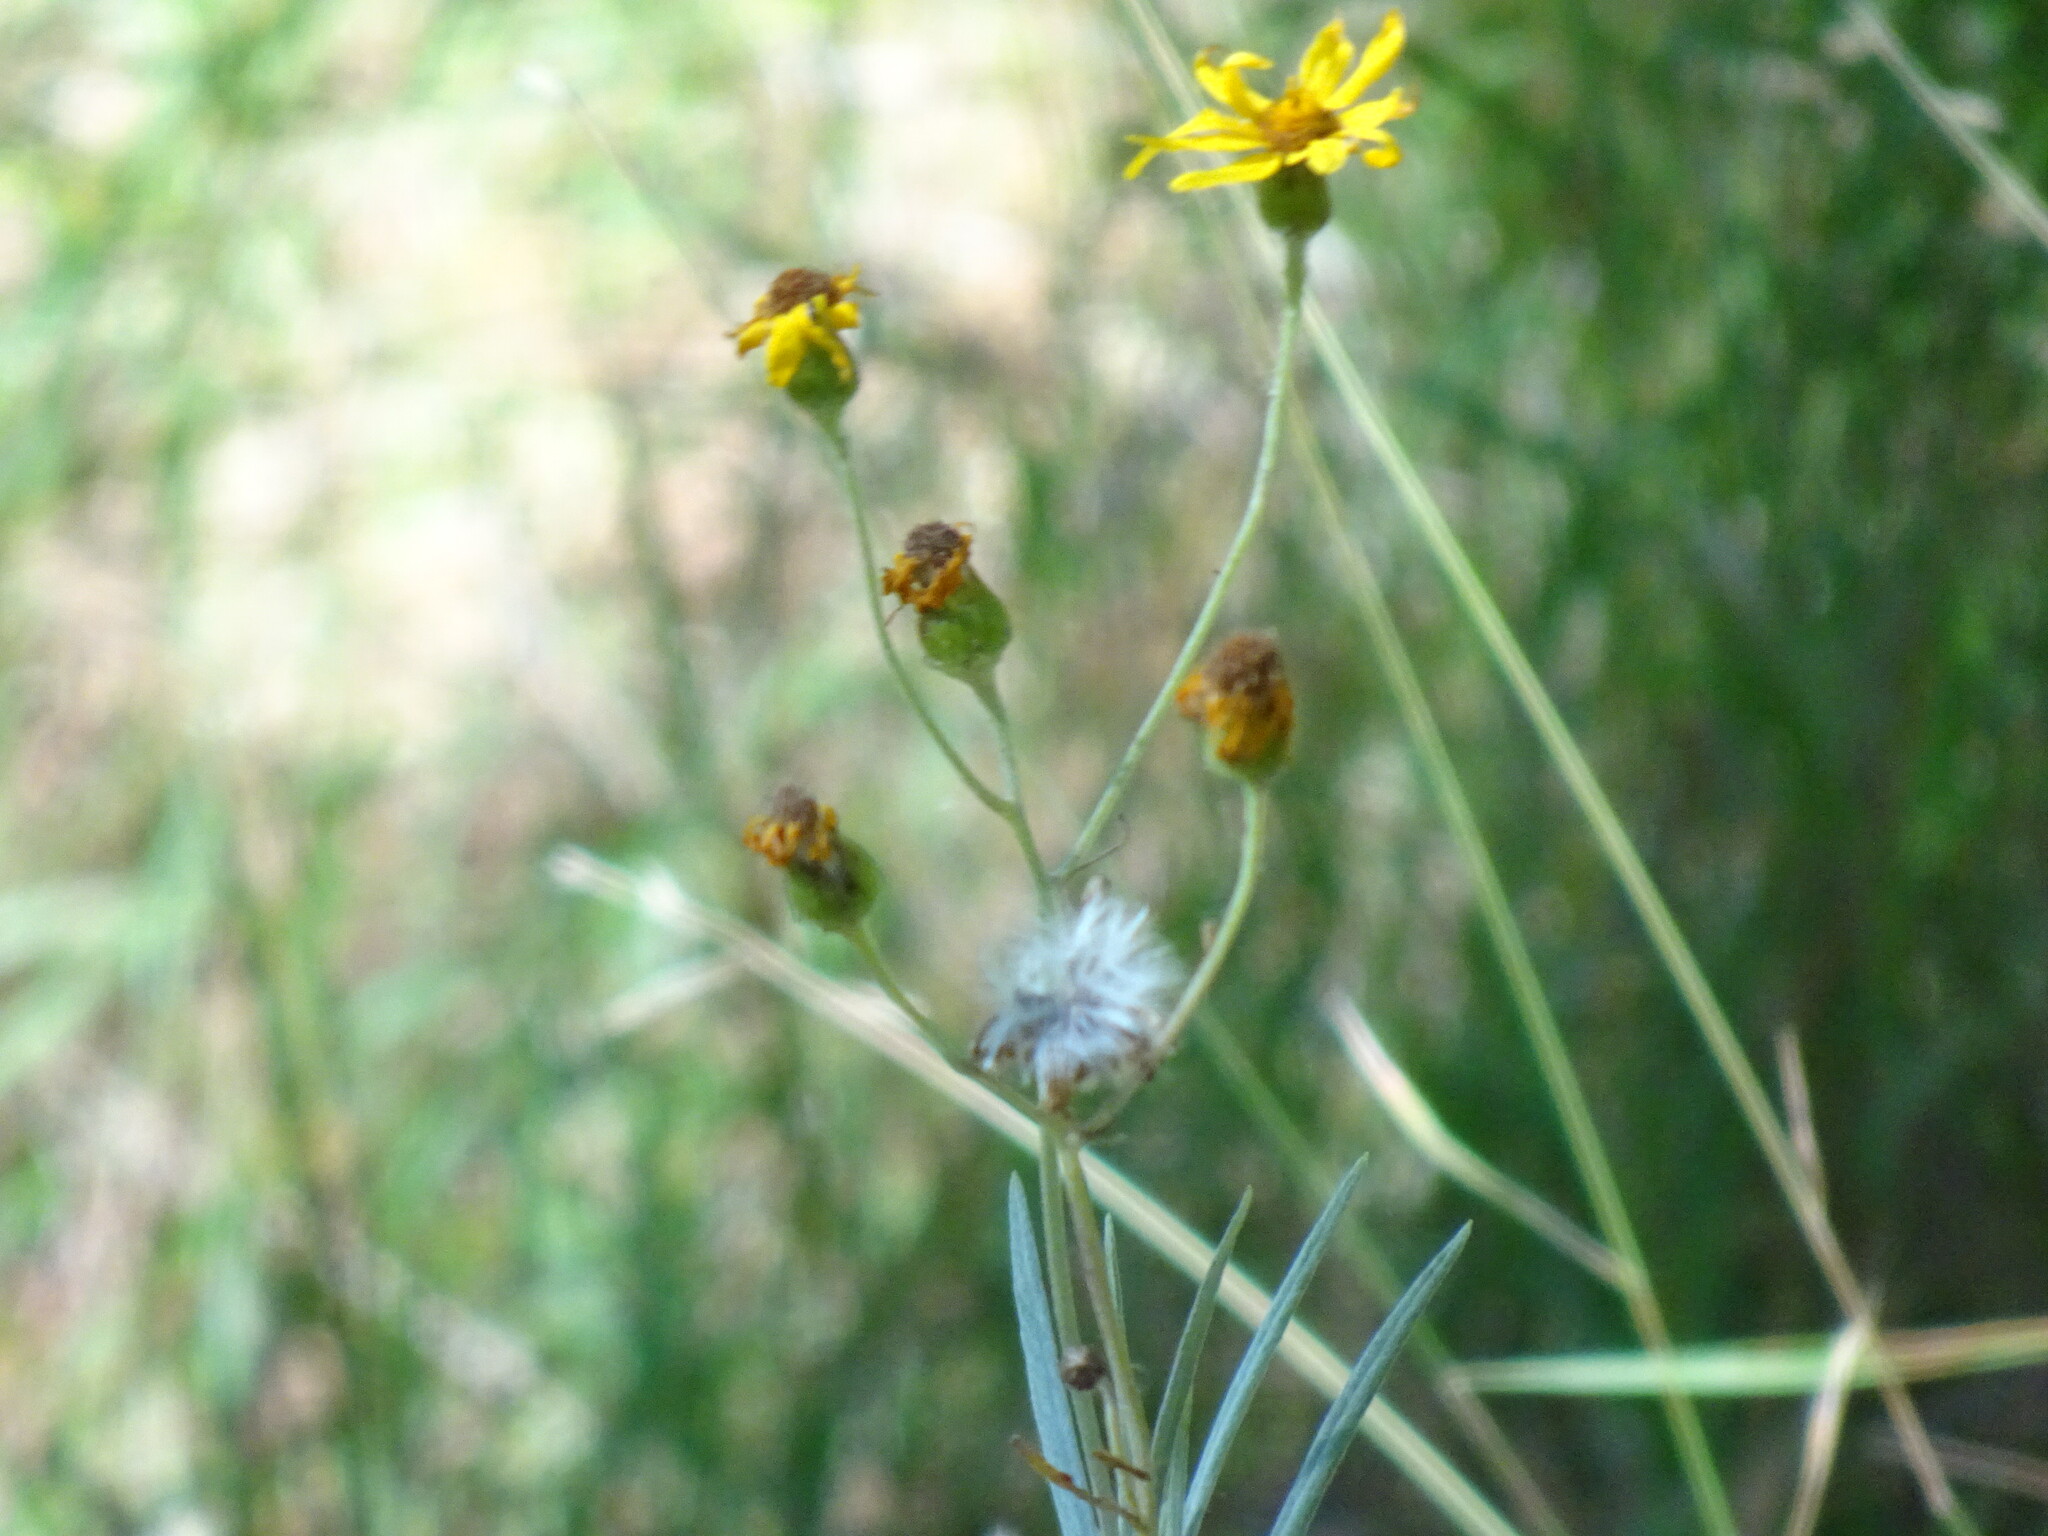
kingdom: Plantae
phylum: Tracheophyta
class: Magnoliopsida
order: Asterales
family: Asteraceae
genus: Senecio
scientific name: Senecio stoechadiformis
